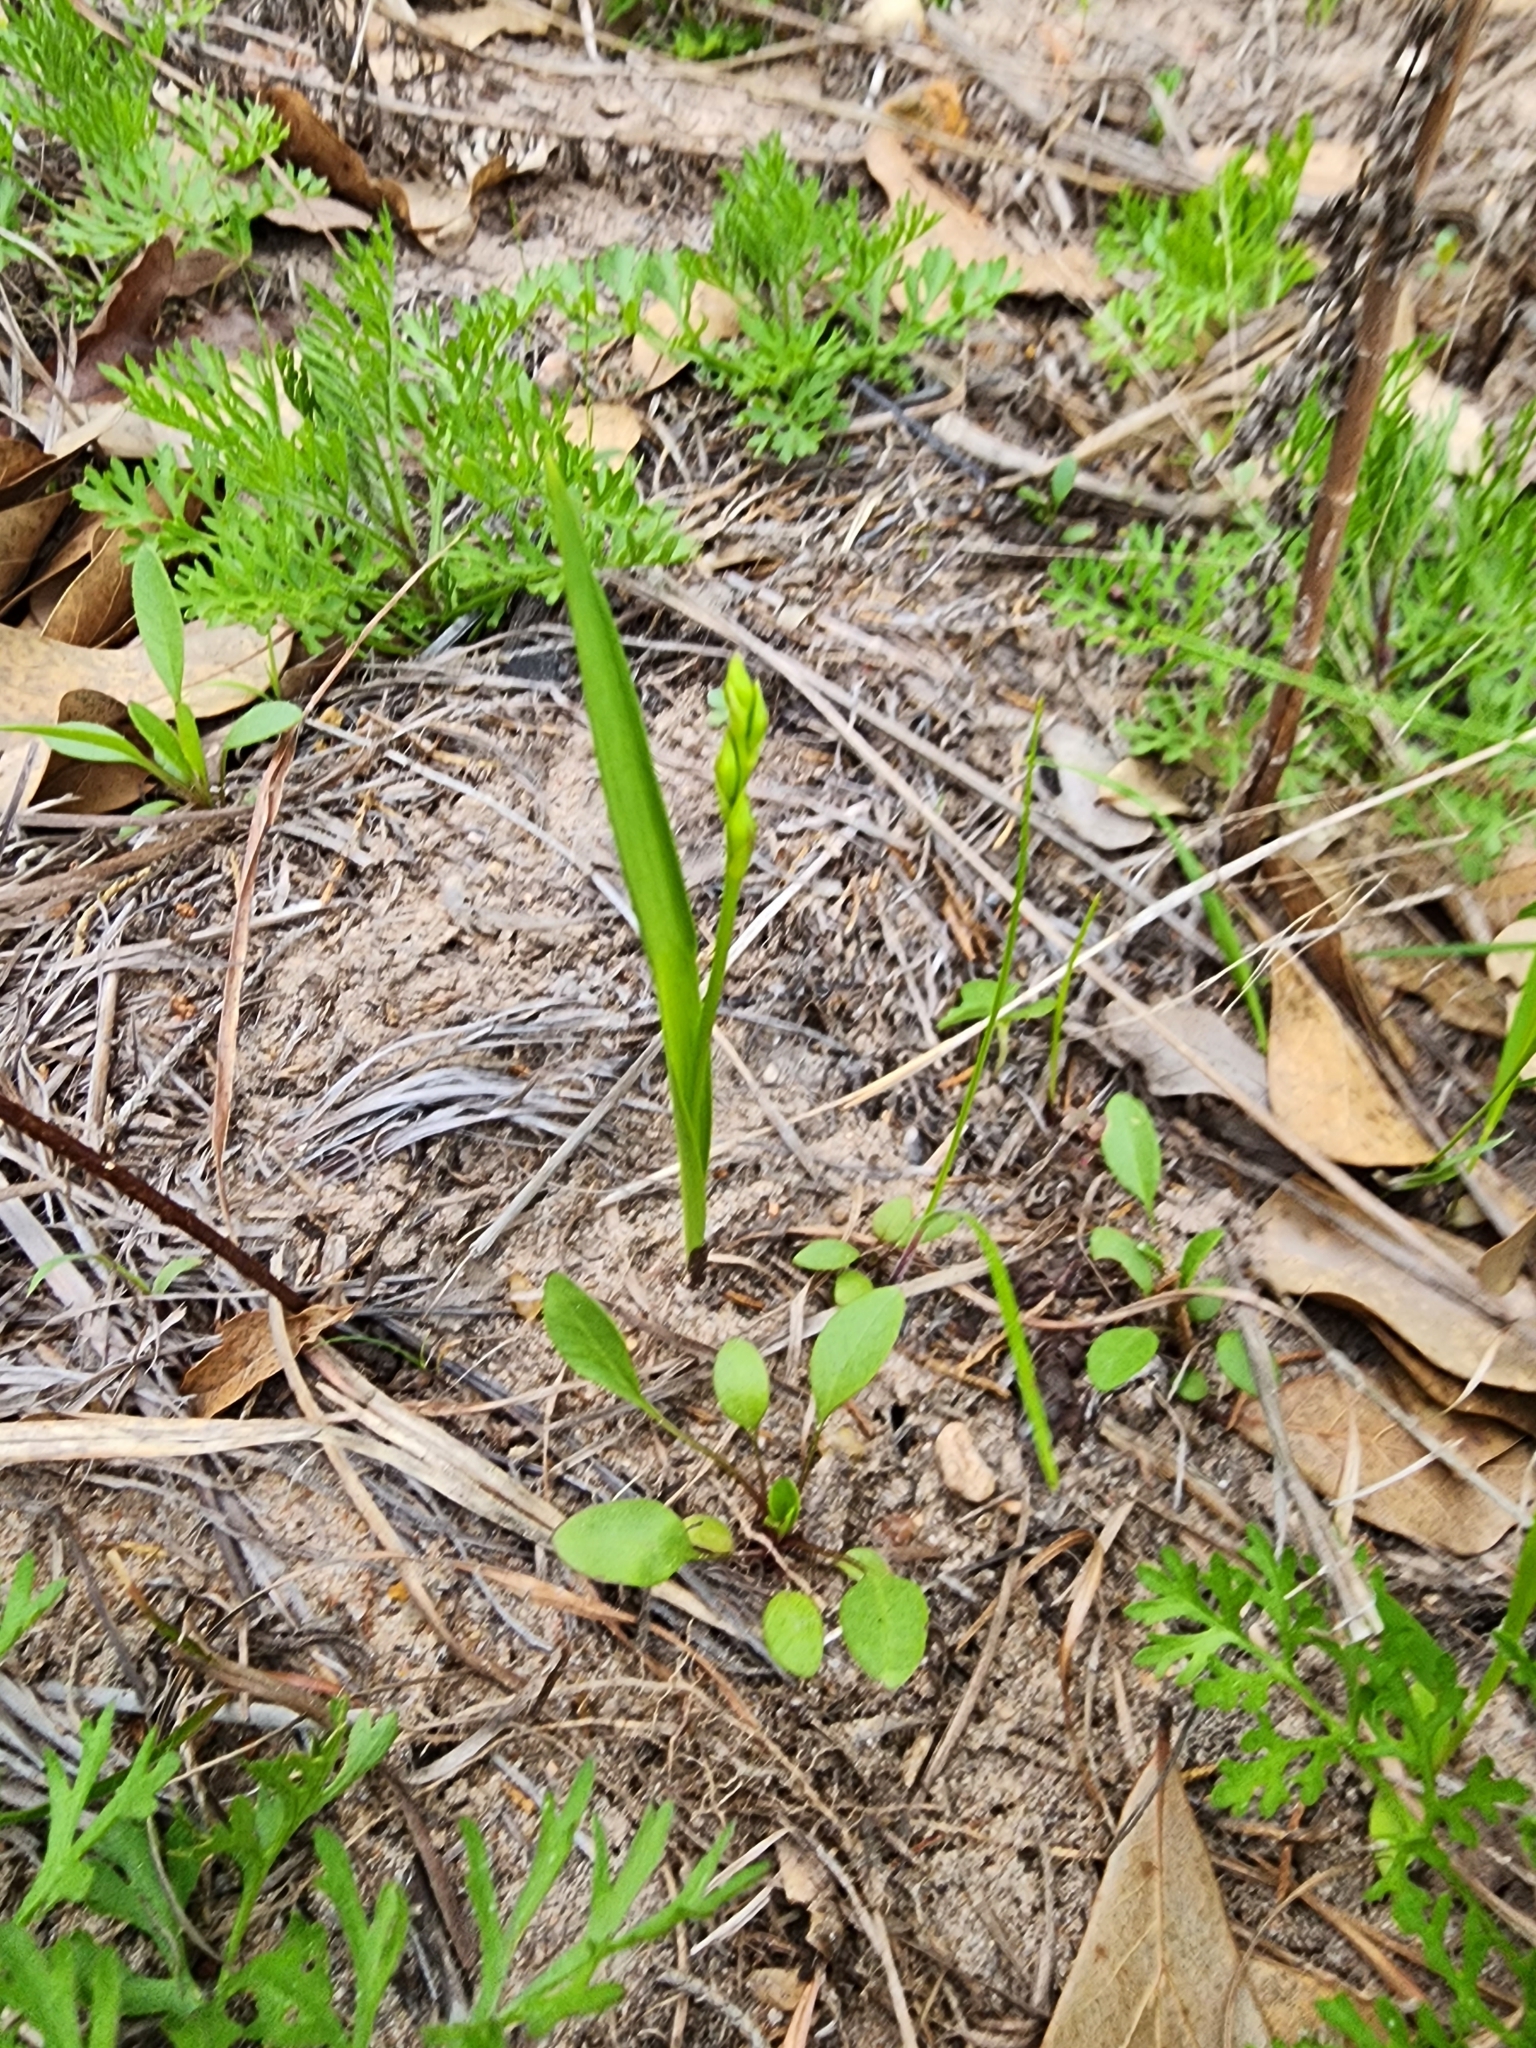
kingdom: Plantae
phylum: Tracheophyta
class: Liliopsida
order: Asparagales
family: Orchidaceae
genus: Calopogon
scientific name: Calopogon oklahomensis
